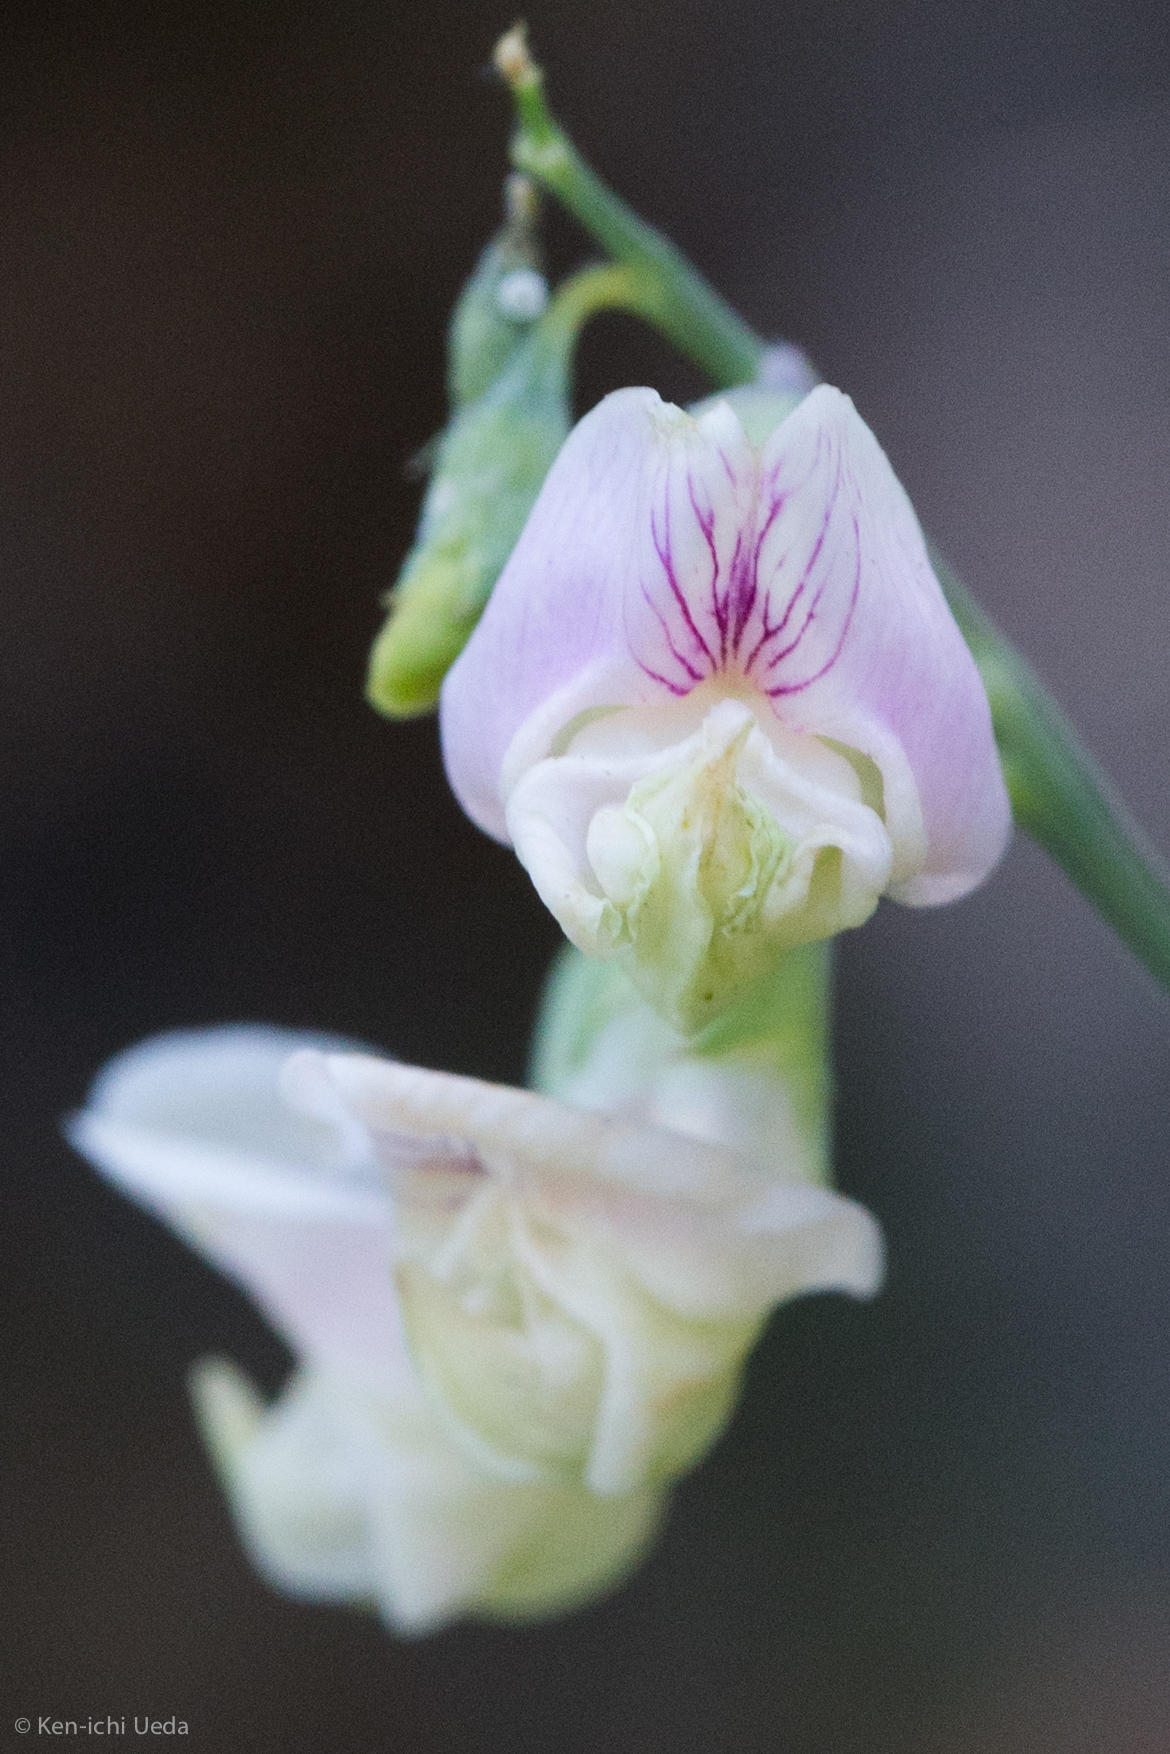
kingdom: Plantae
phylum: Tracheophyta
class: Magnoliopsida
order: Fabales
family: Fabaceae
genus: Lathyrus
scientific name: Lathyrus graminifolius
